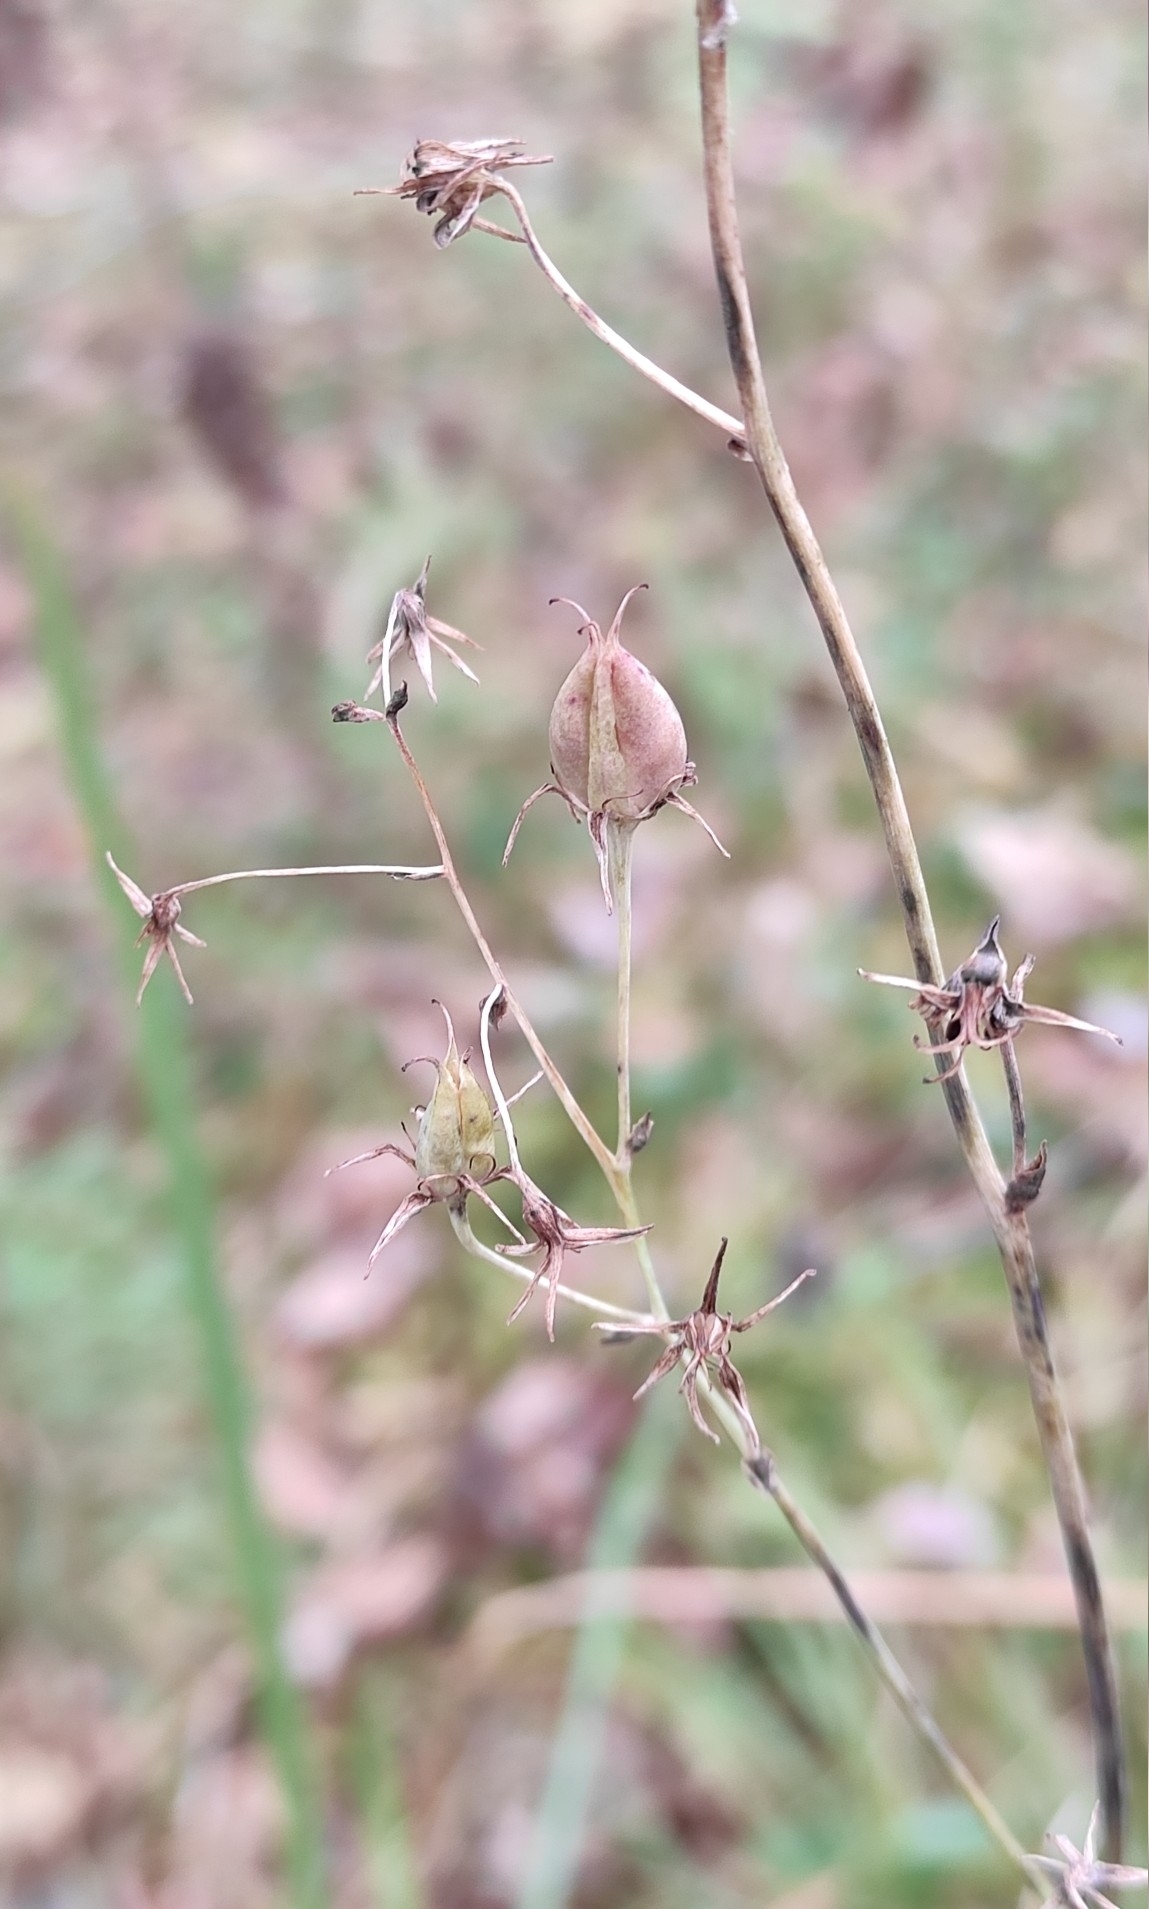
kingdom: Plantae
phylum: Tracheophyta
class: Liliopsida
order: Liliales
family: Melanthiaceae
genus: Anticlea
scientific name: Anticlea sibirica
